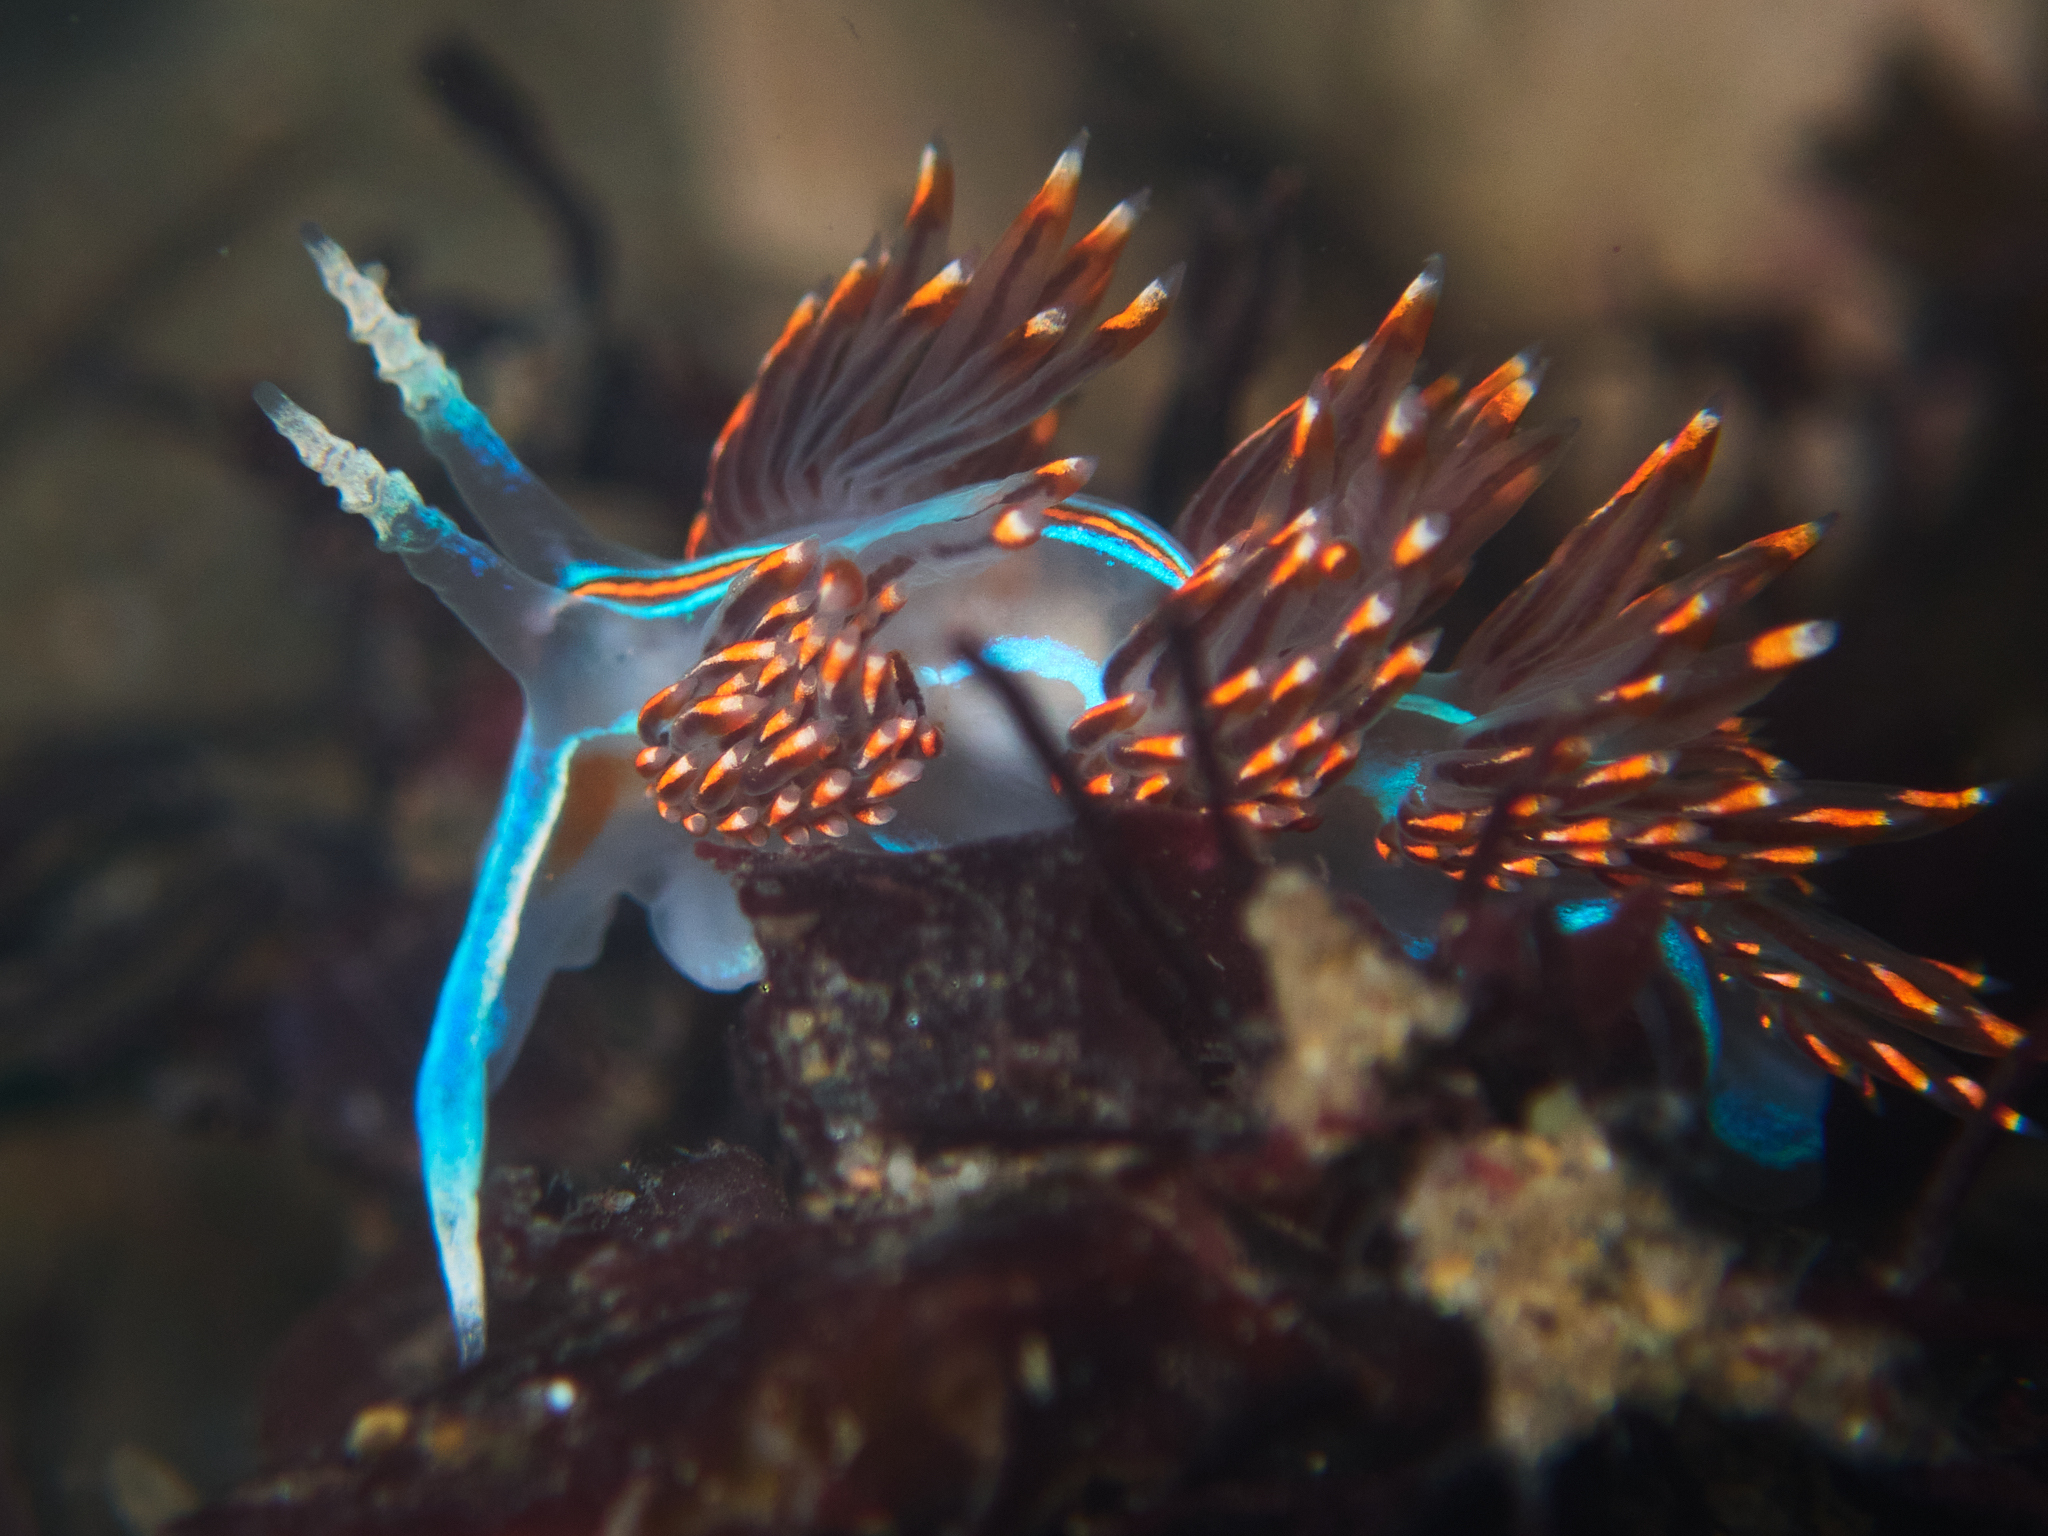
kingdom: Animalia
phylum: Mollusca
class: Gastropoda
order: Nudibranchia
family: Myrrhinidae
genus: Hermissenda
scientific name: Hermissenda opalescens
